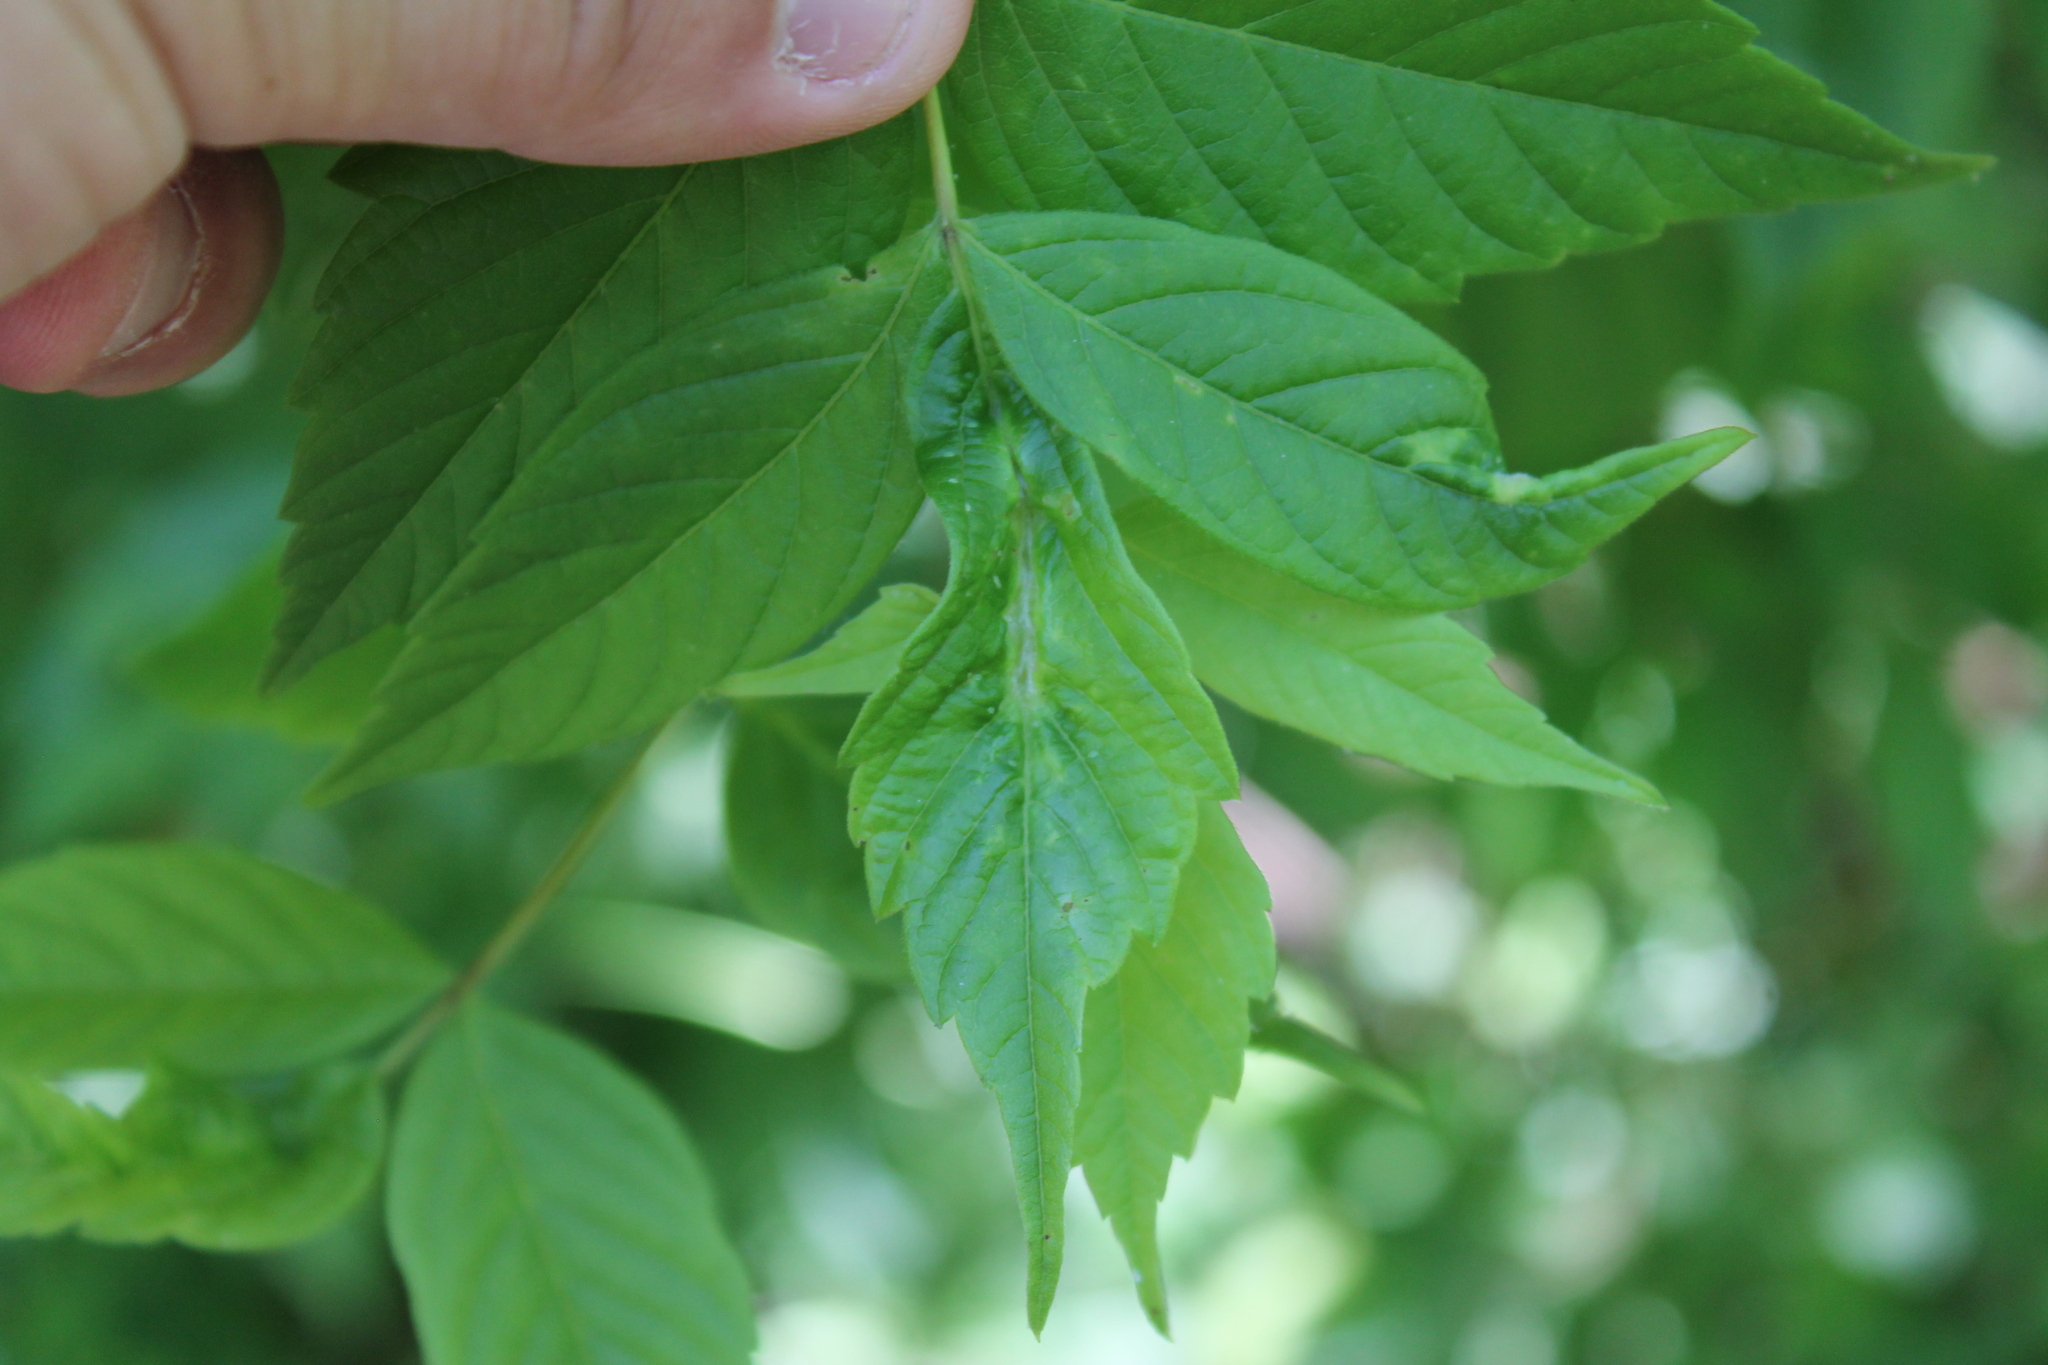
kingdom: Animalia
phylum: Arthropoda
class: Insecta
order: Diptera
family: Cecidomyiidae
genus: Contarinia
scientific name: Contarinia negundinis
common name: Boxelder budgall midge
